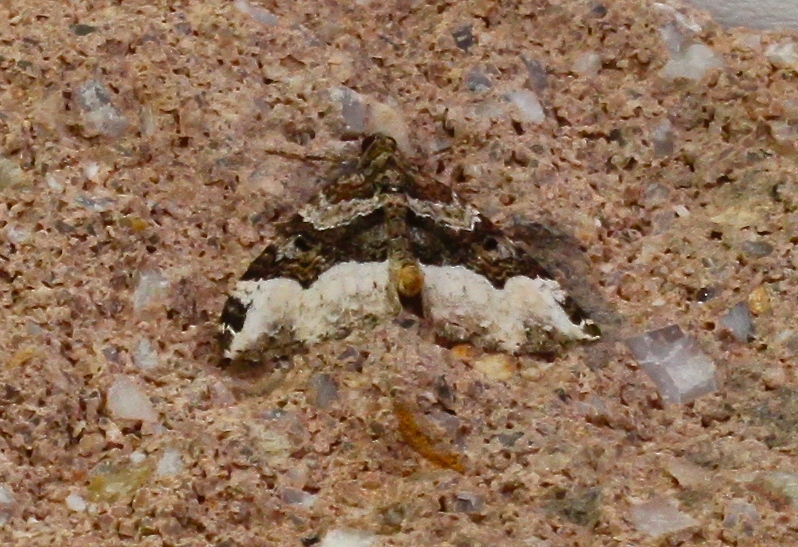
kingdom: Animalia
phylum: Arthropoda
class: Insecta
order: Lepidoptera
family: Geometridae
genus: Euphyia
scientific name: Euphyia intermediata
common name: Sharp-angled carpet
